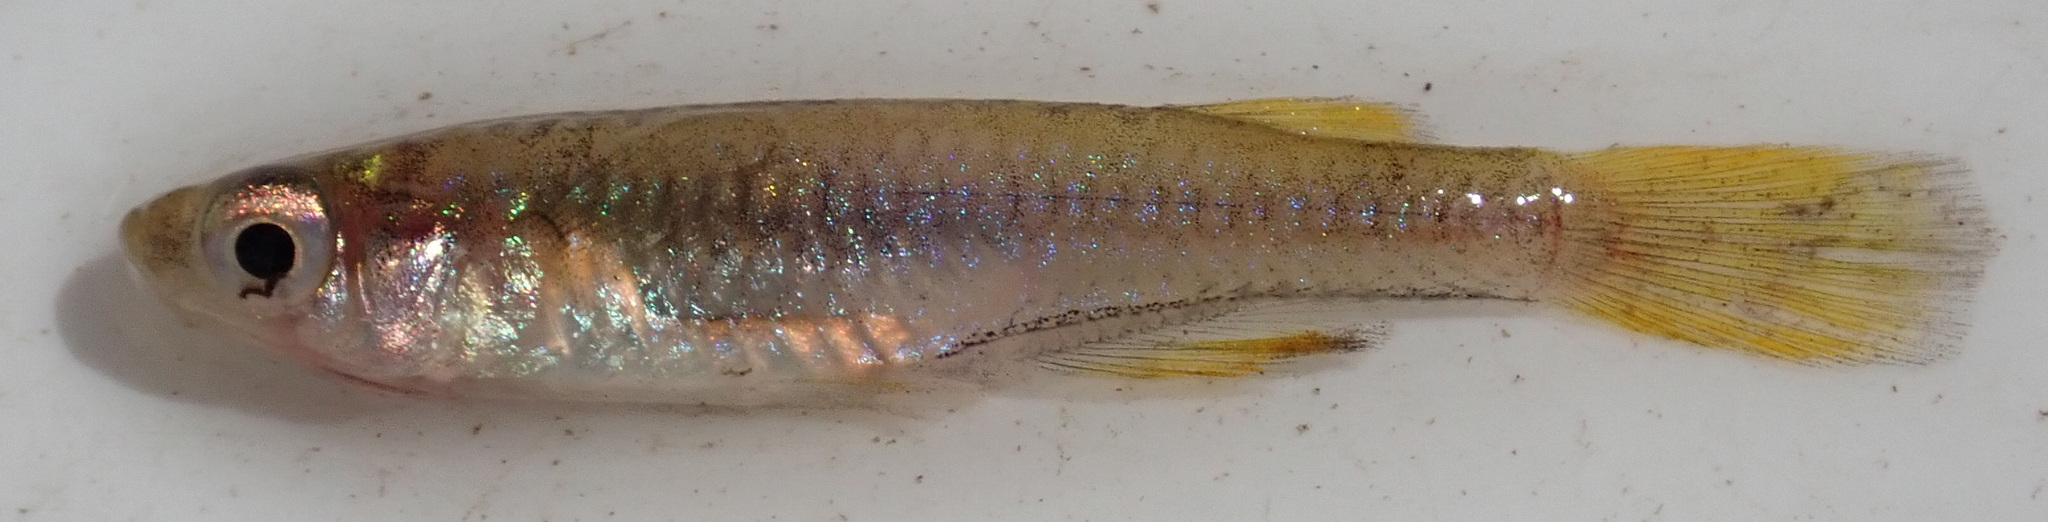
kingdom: Animalia
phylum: Chordata
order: Cyprinodontiformes
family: Poeciliidae
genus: Micropanchax
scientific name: Micropanchax johnstoni
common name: Johnston's topminnow
